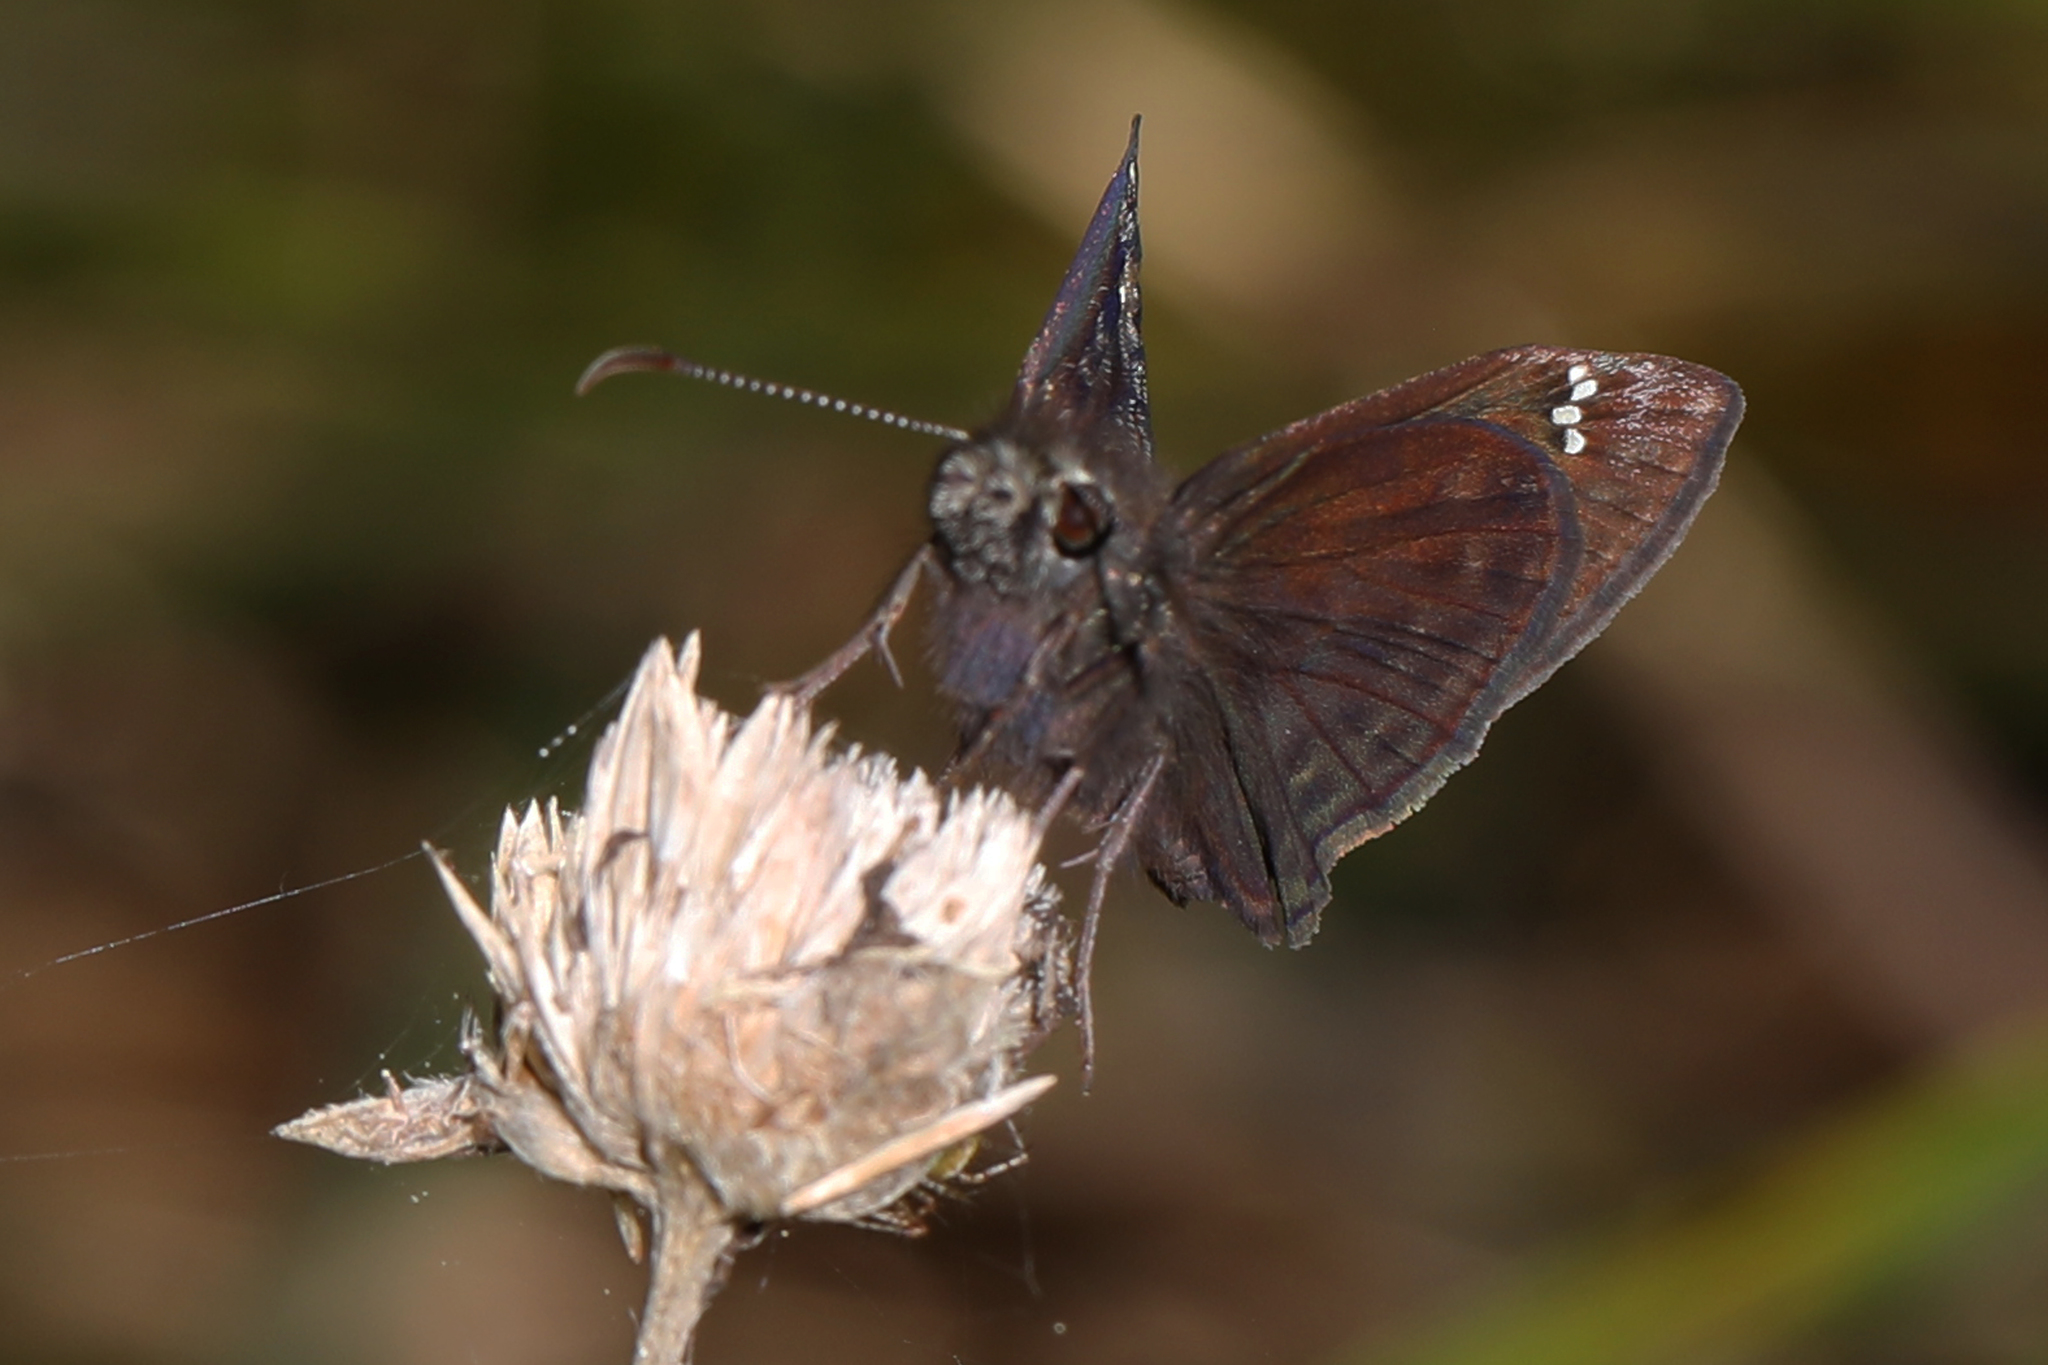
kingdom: Animalia
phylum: Arthropoda
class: Insecta
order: Lepidoptera
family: Hesperiidae
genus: Erynnis
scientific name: Erynnis horatius
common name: Horace's duskywing
